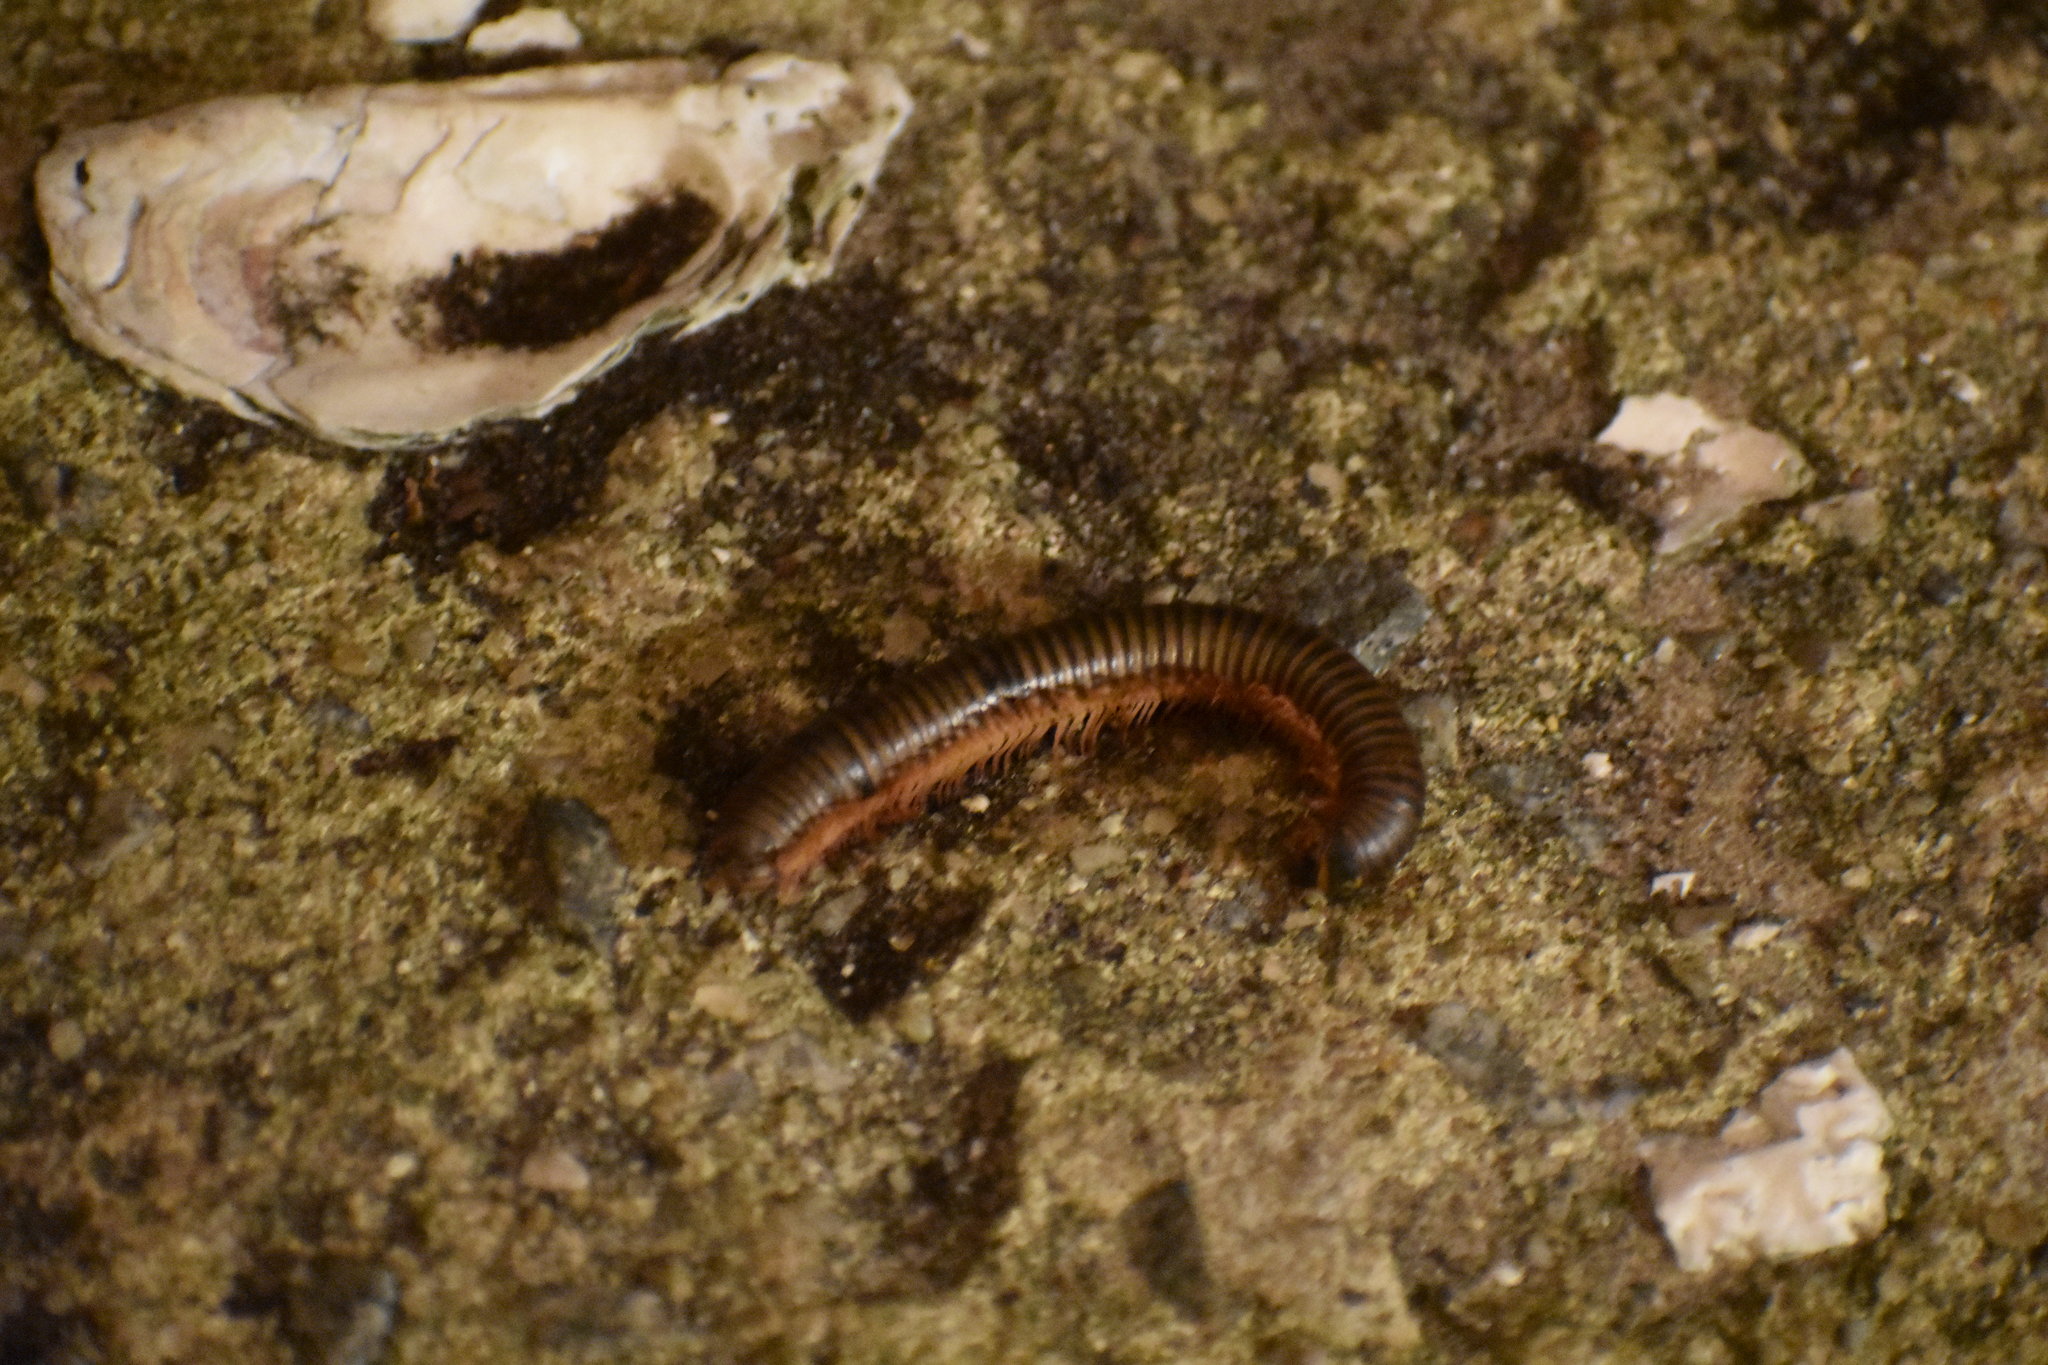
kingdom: Animalia
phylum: Arthropoda
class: Diplopoda
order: Spirobolida
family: Spirobolidae
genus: Narceus
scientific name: Narceus
